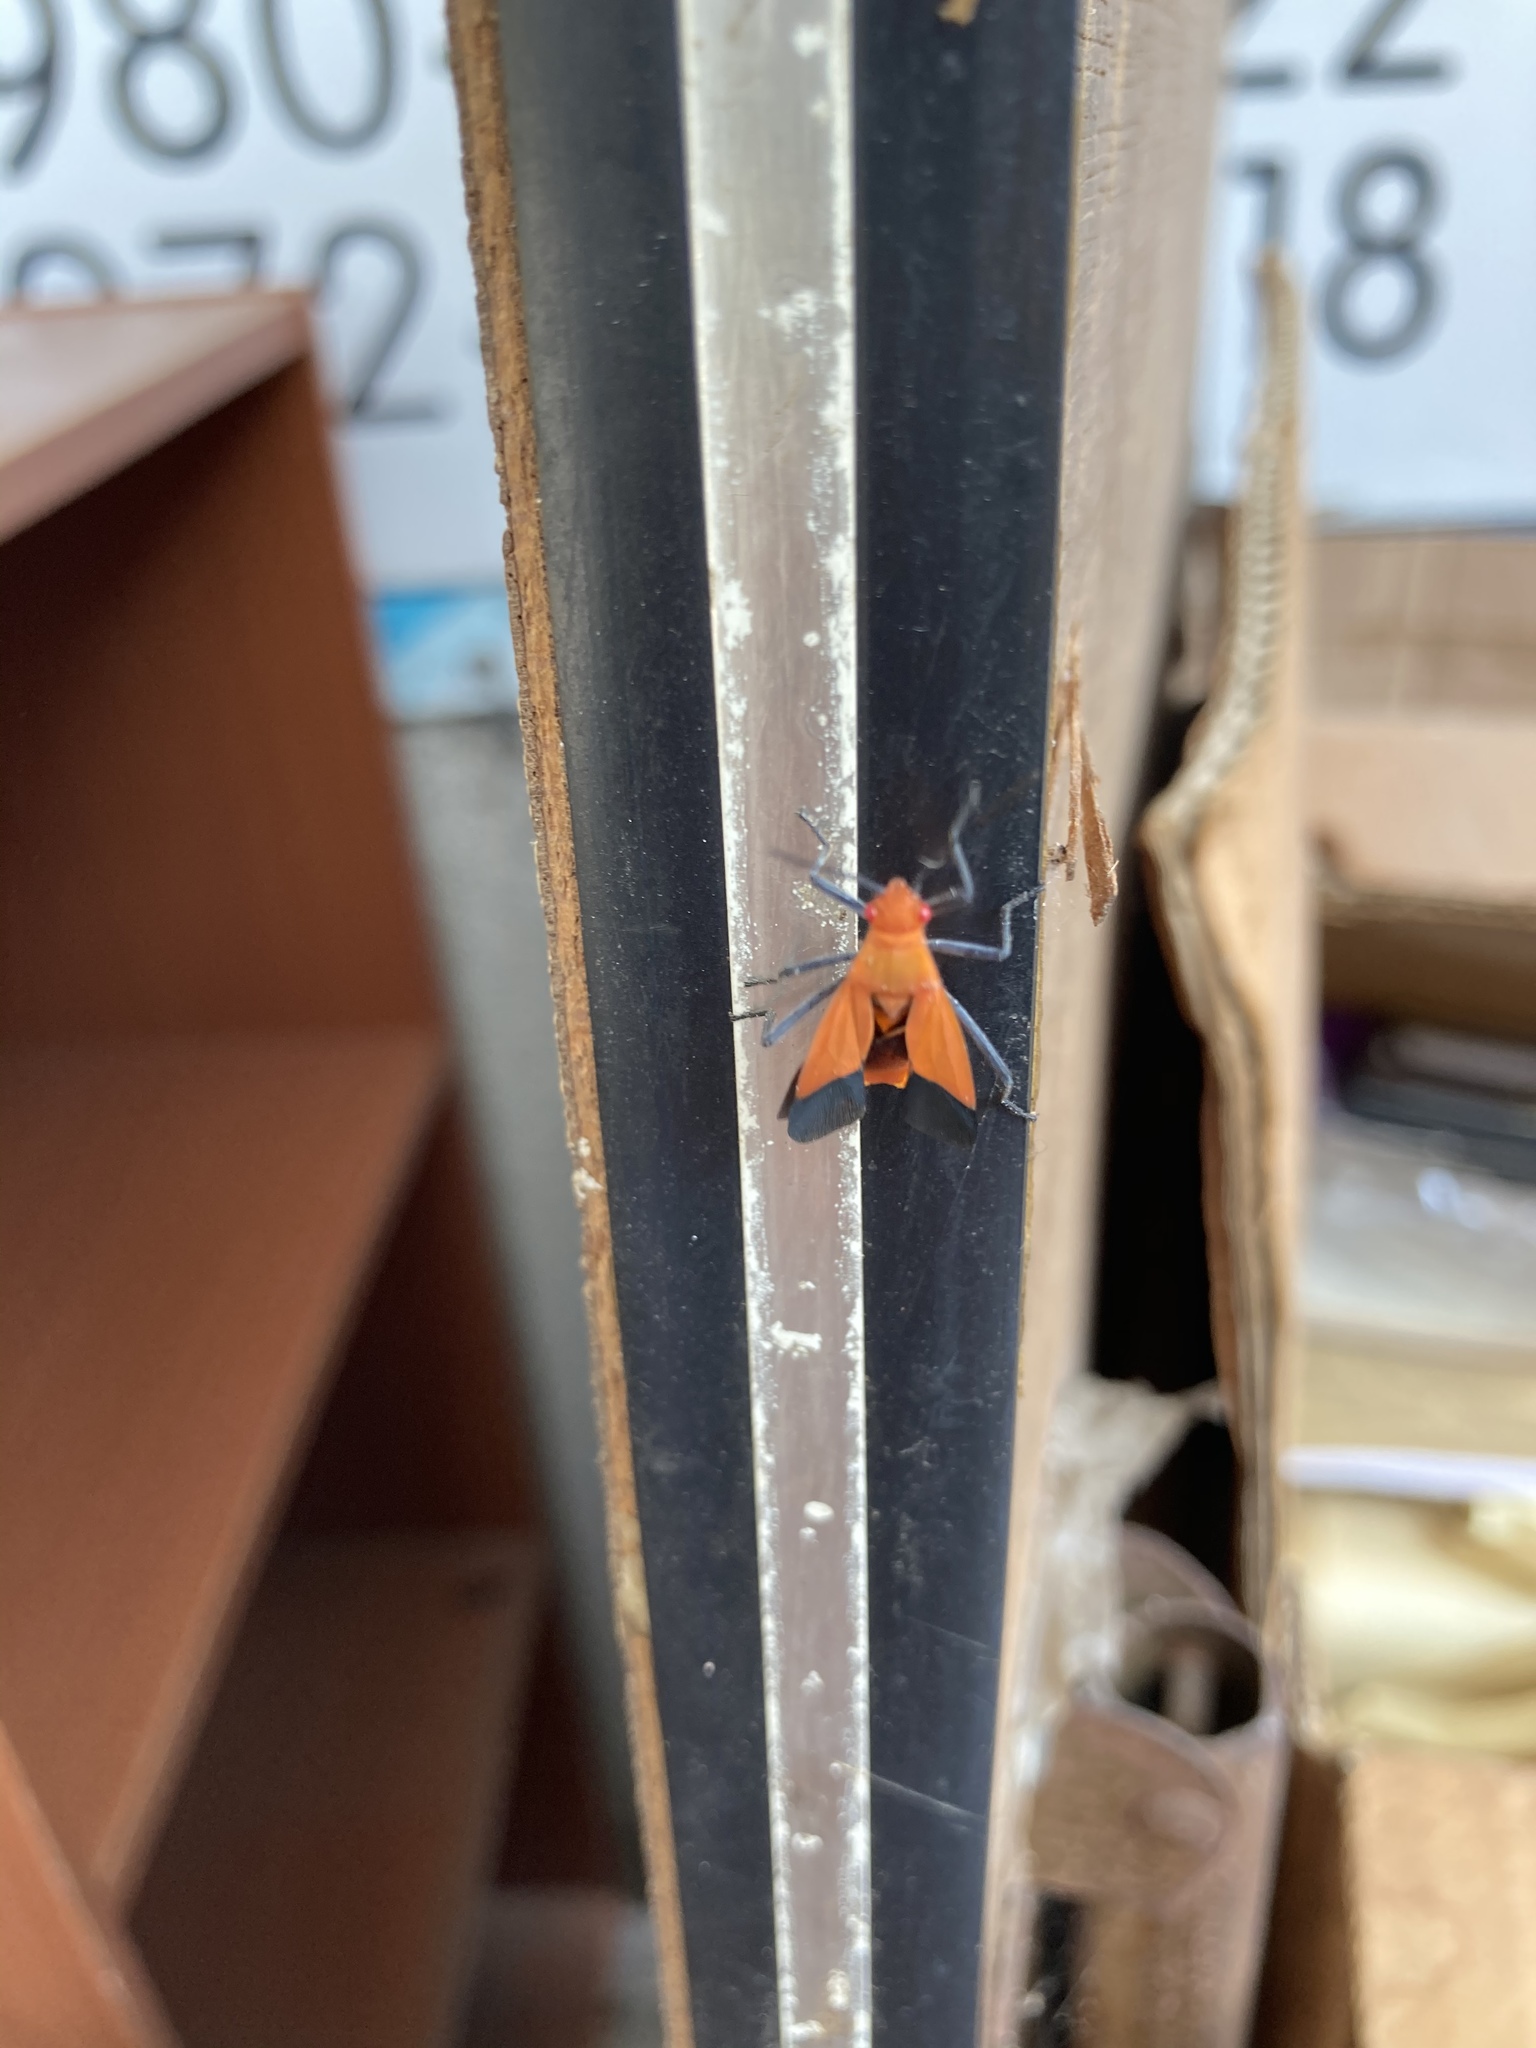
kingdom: Animalia
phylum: Arthropoda
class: Insecta
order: Hemiptera
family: Rhopalidae
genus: Leptocoris
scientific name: Leptocoris augur
